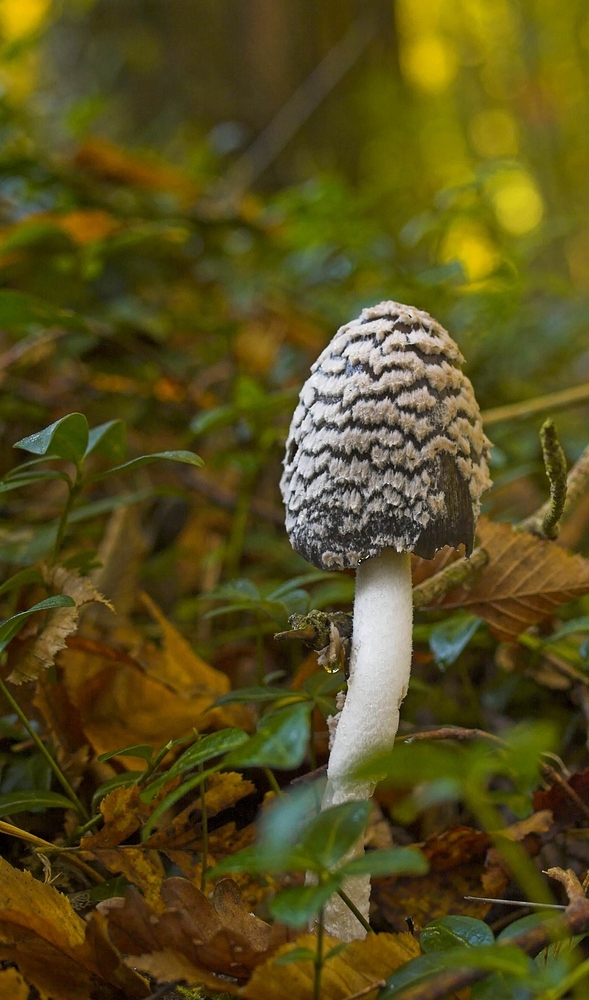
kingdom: Fungi
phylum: Basidiomycota
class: Agaricomycetes
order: Agaricales
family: Psathyrellaceae
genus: Coprinopsis
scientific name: Coprinopsis picacea
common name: Magpie inkcap
